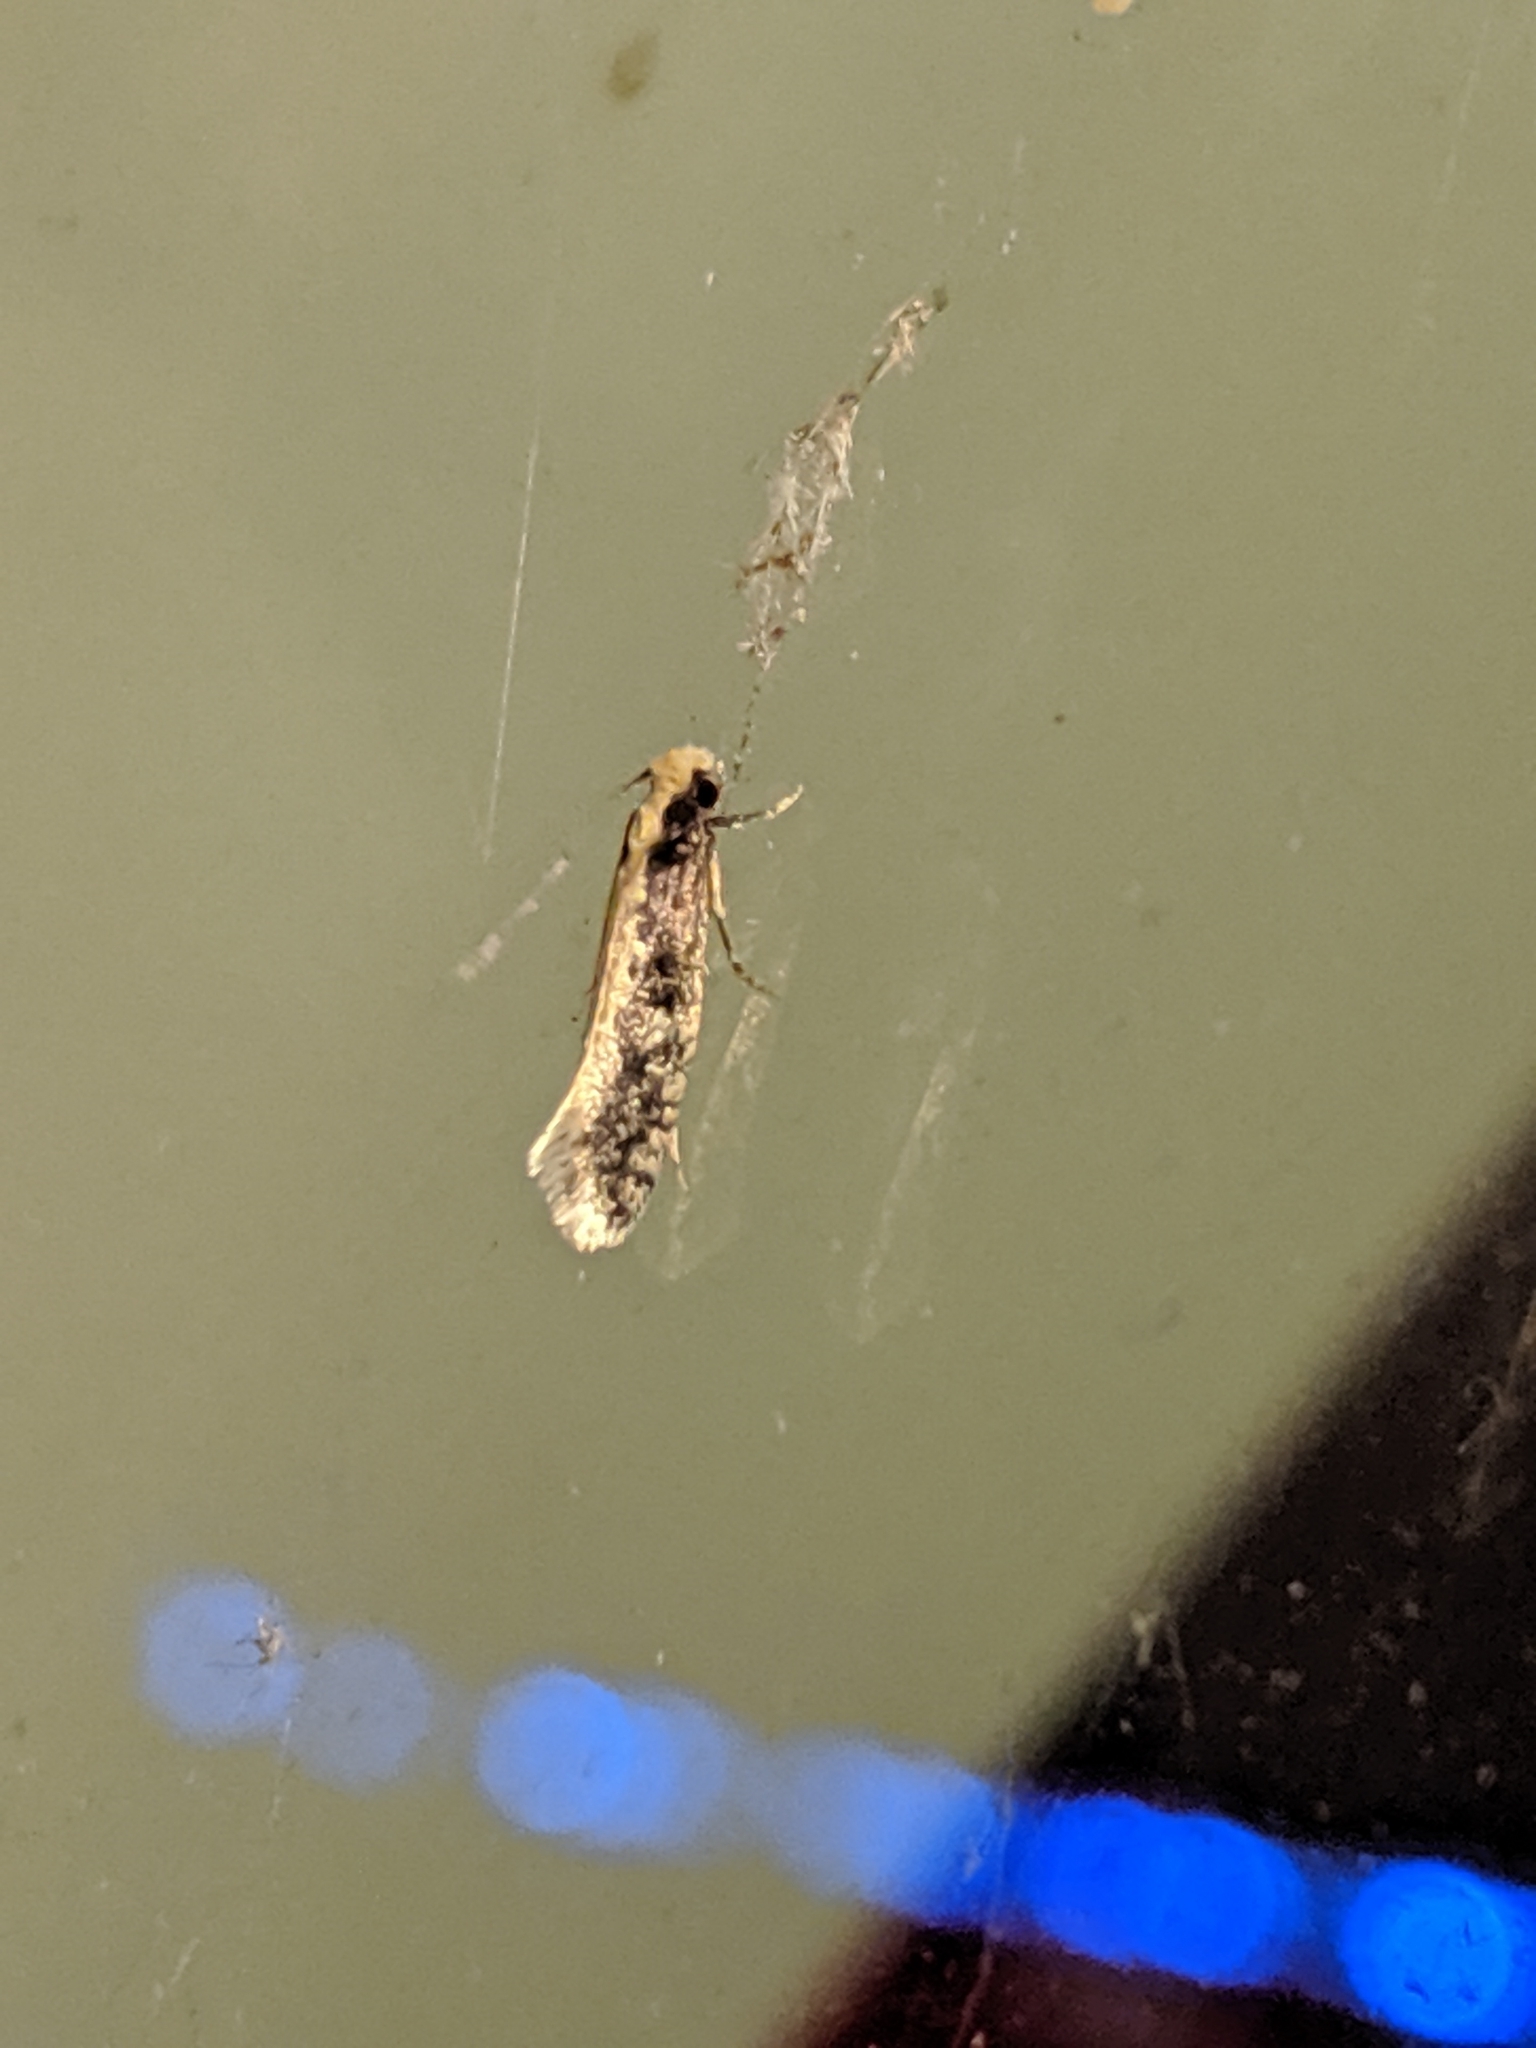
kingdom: Animalia
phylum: Arthropoda
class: Insecta
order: Lepidoptera
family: Tineidae
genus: Monopis
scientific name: Monopis crocicapitella
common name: Moth
